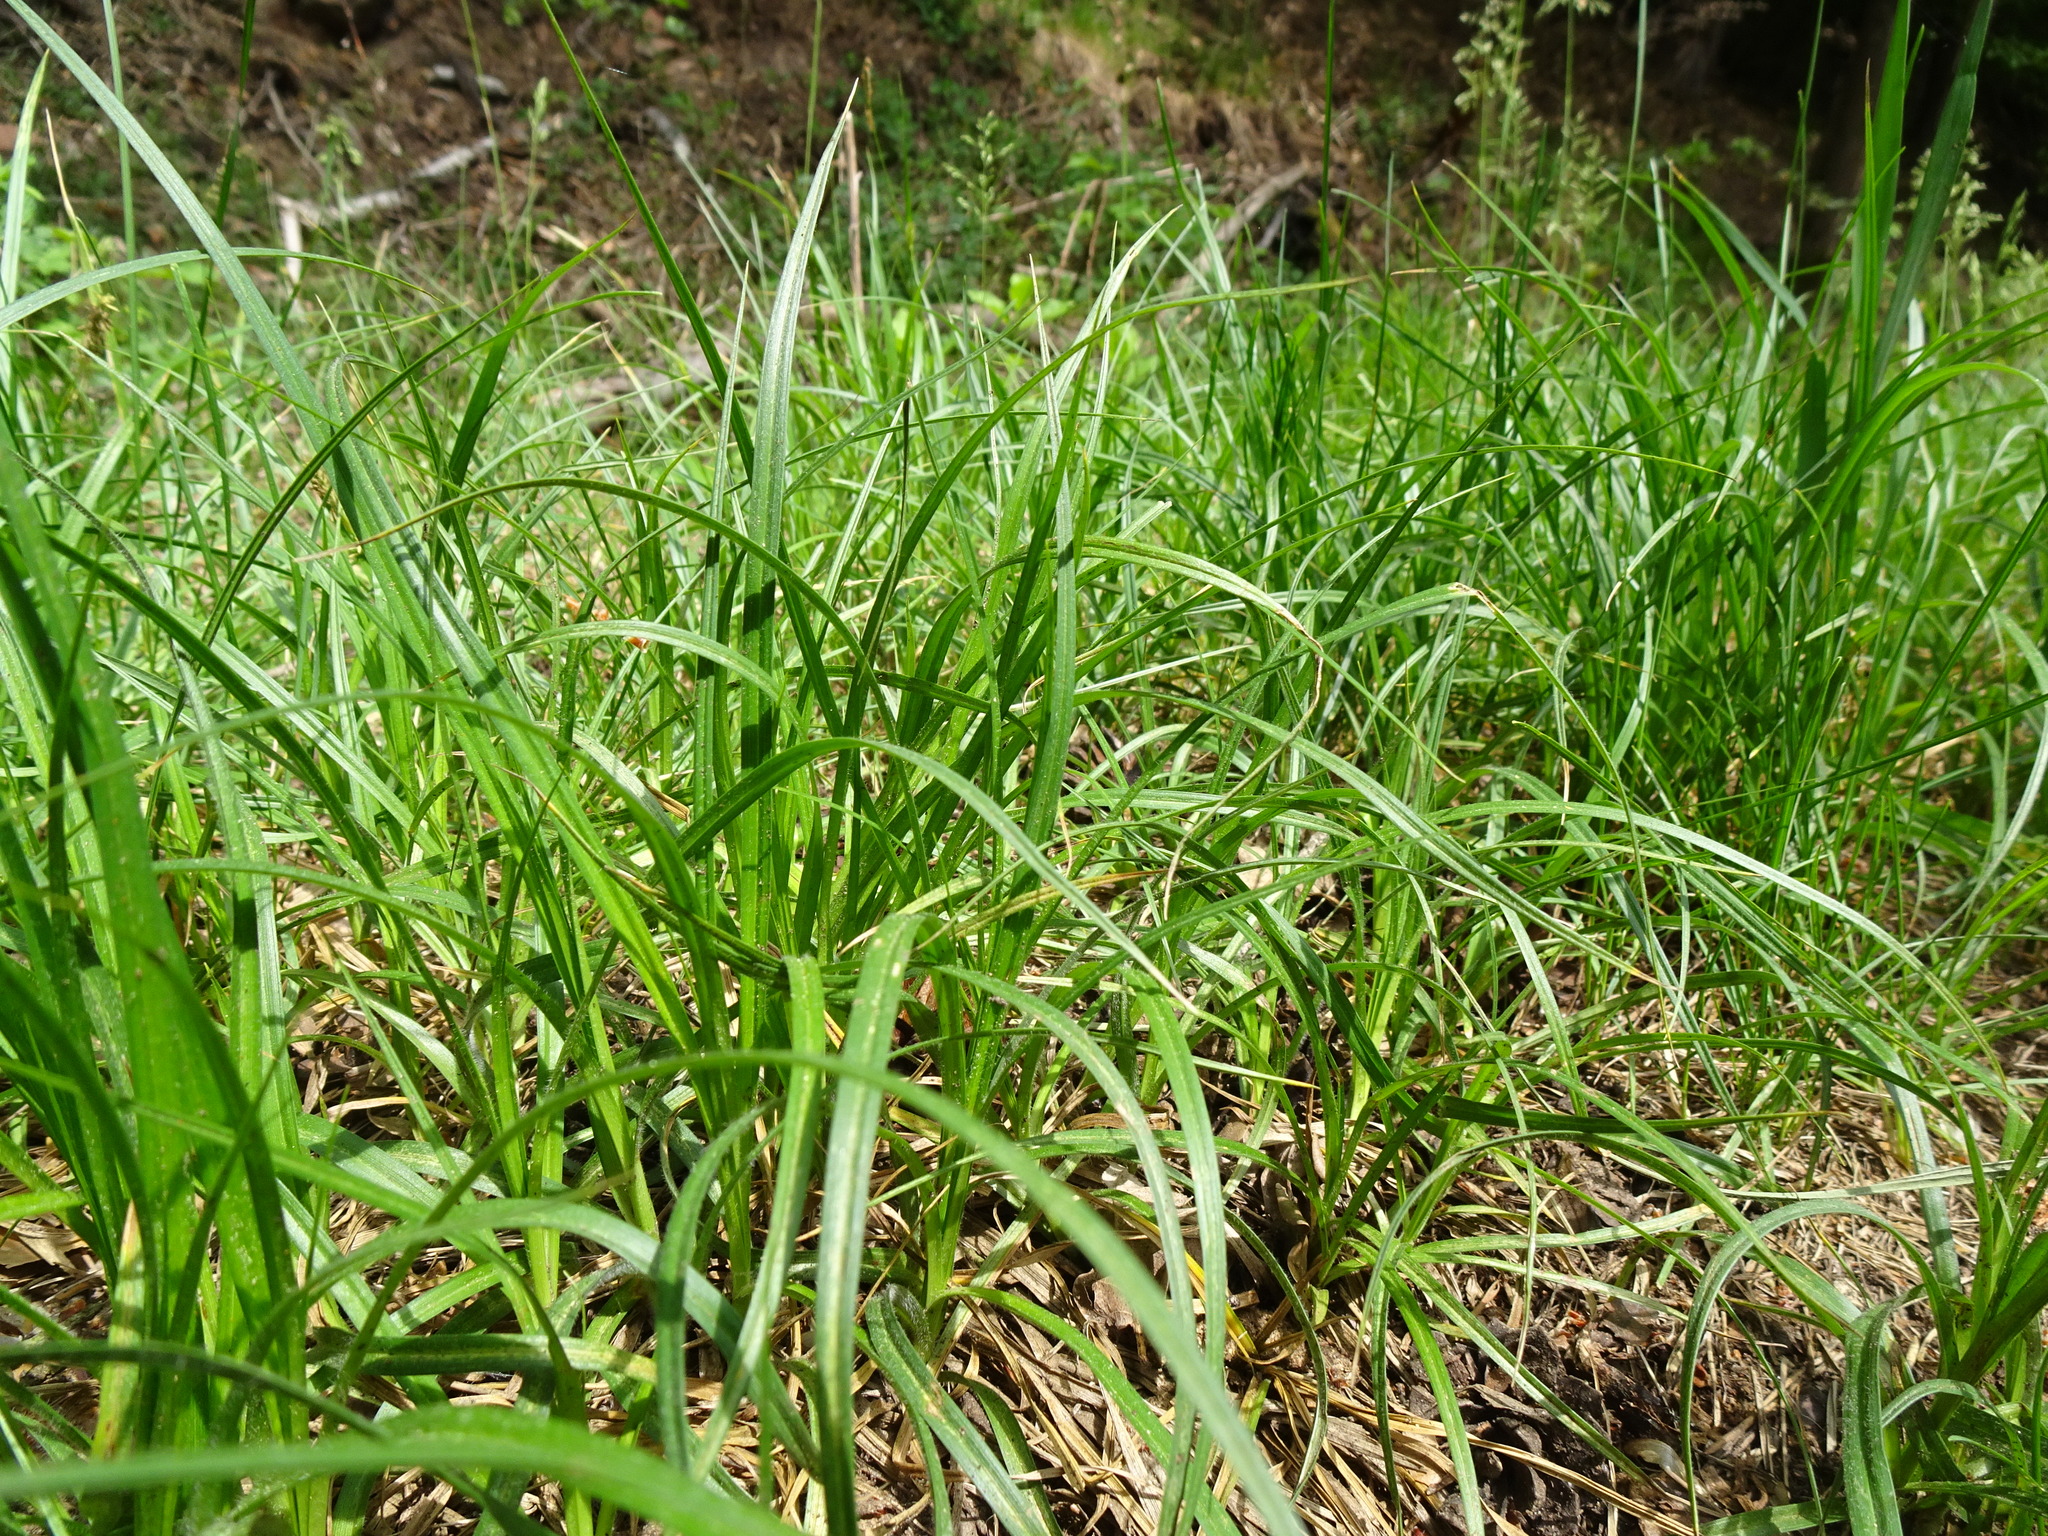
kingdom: Plantae
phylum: Tracheophyta
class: Liliopsida
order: Poales
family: Cyperaceae
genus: Carex
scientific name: Carex hirta
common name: Hairy sedge
